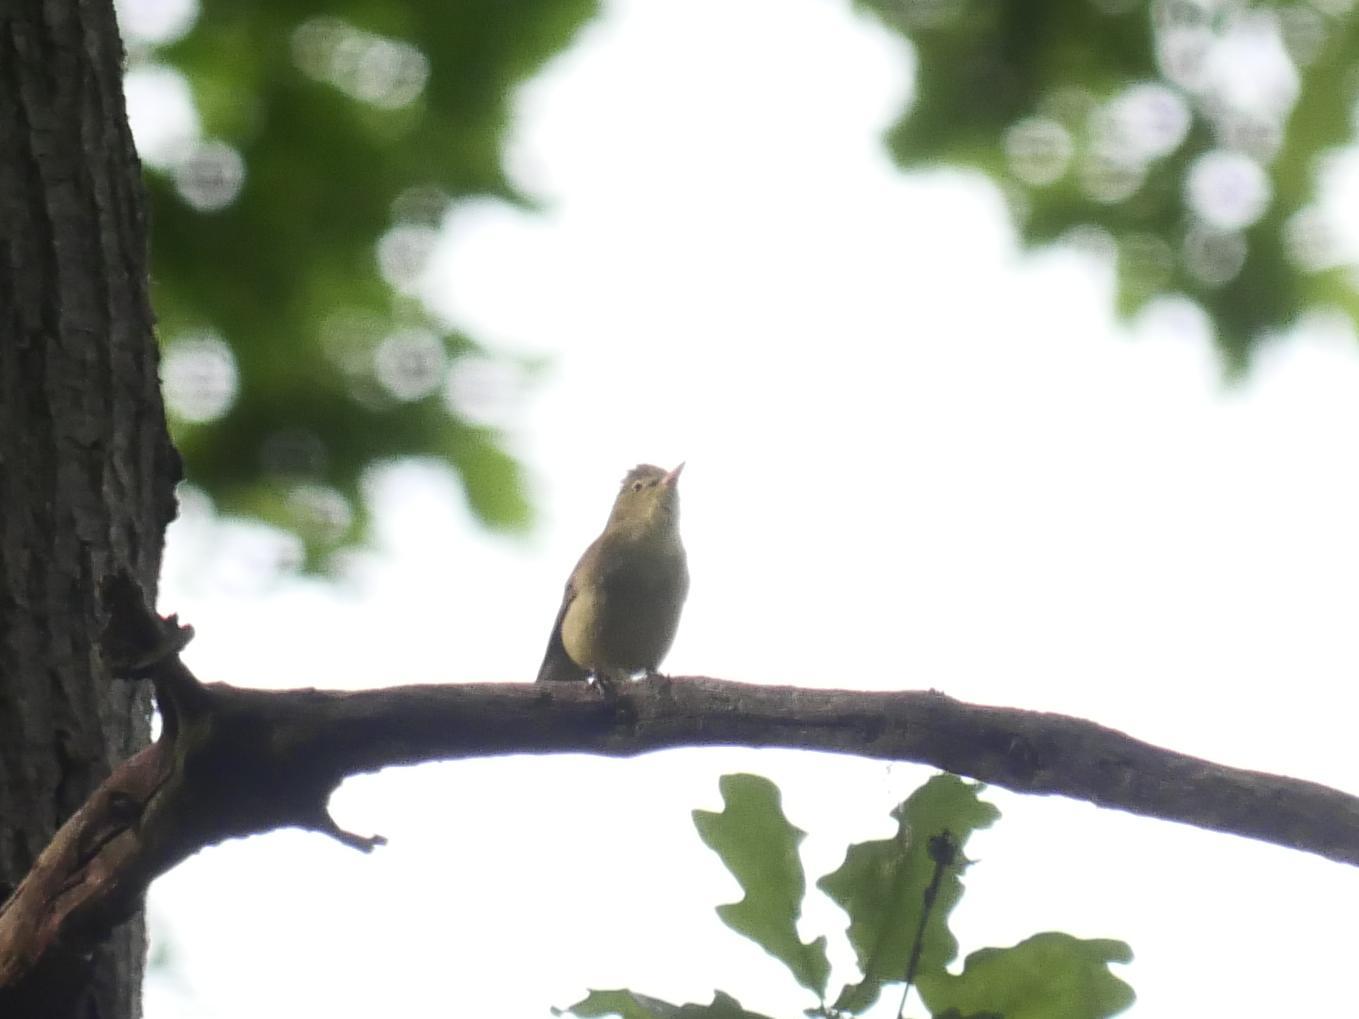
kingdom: Animalia
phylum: Chordata
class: Aves
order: Passeriformes
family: Acrocephalidae
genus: Hippolais
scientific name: Hippolais icterina
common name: Icterine warbler
